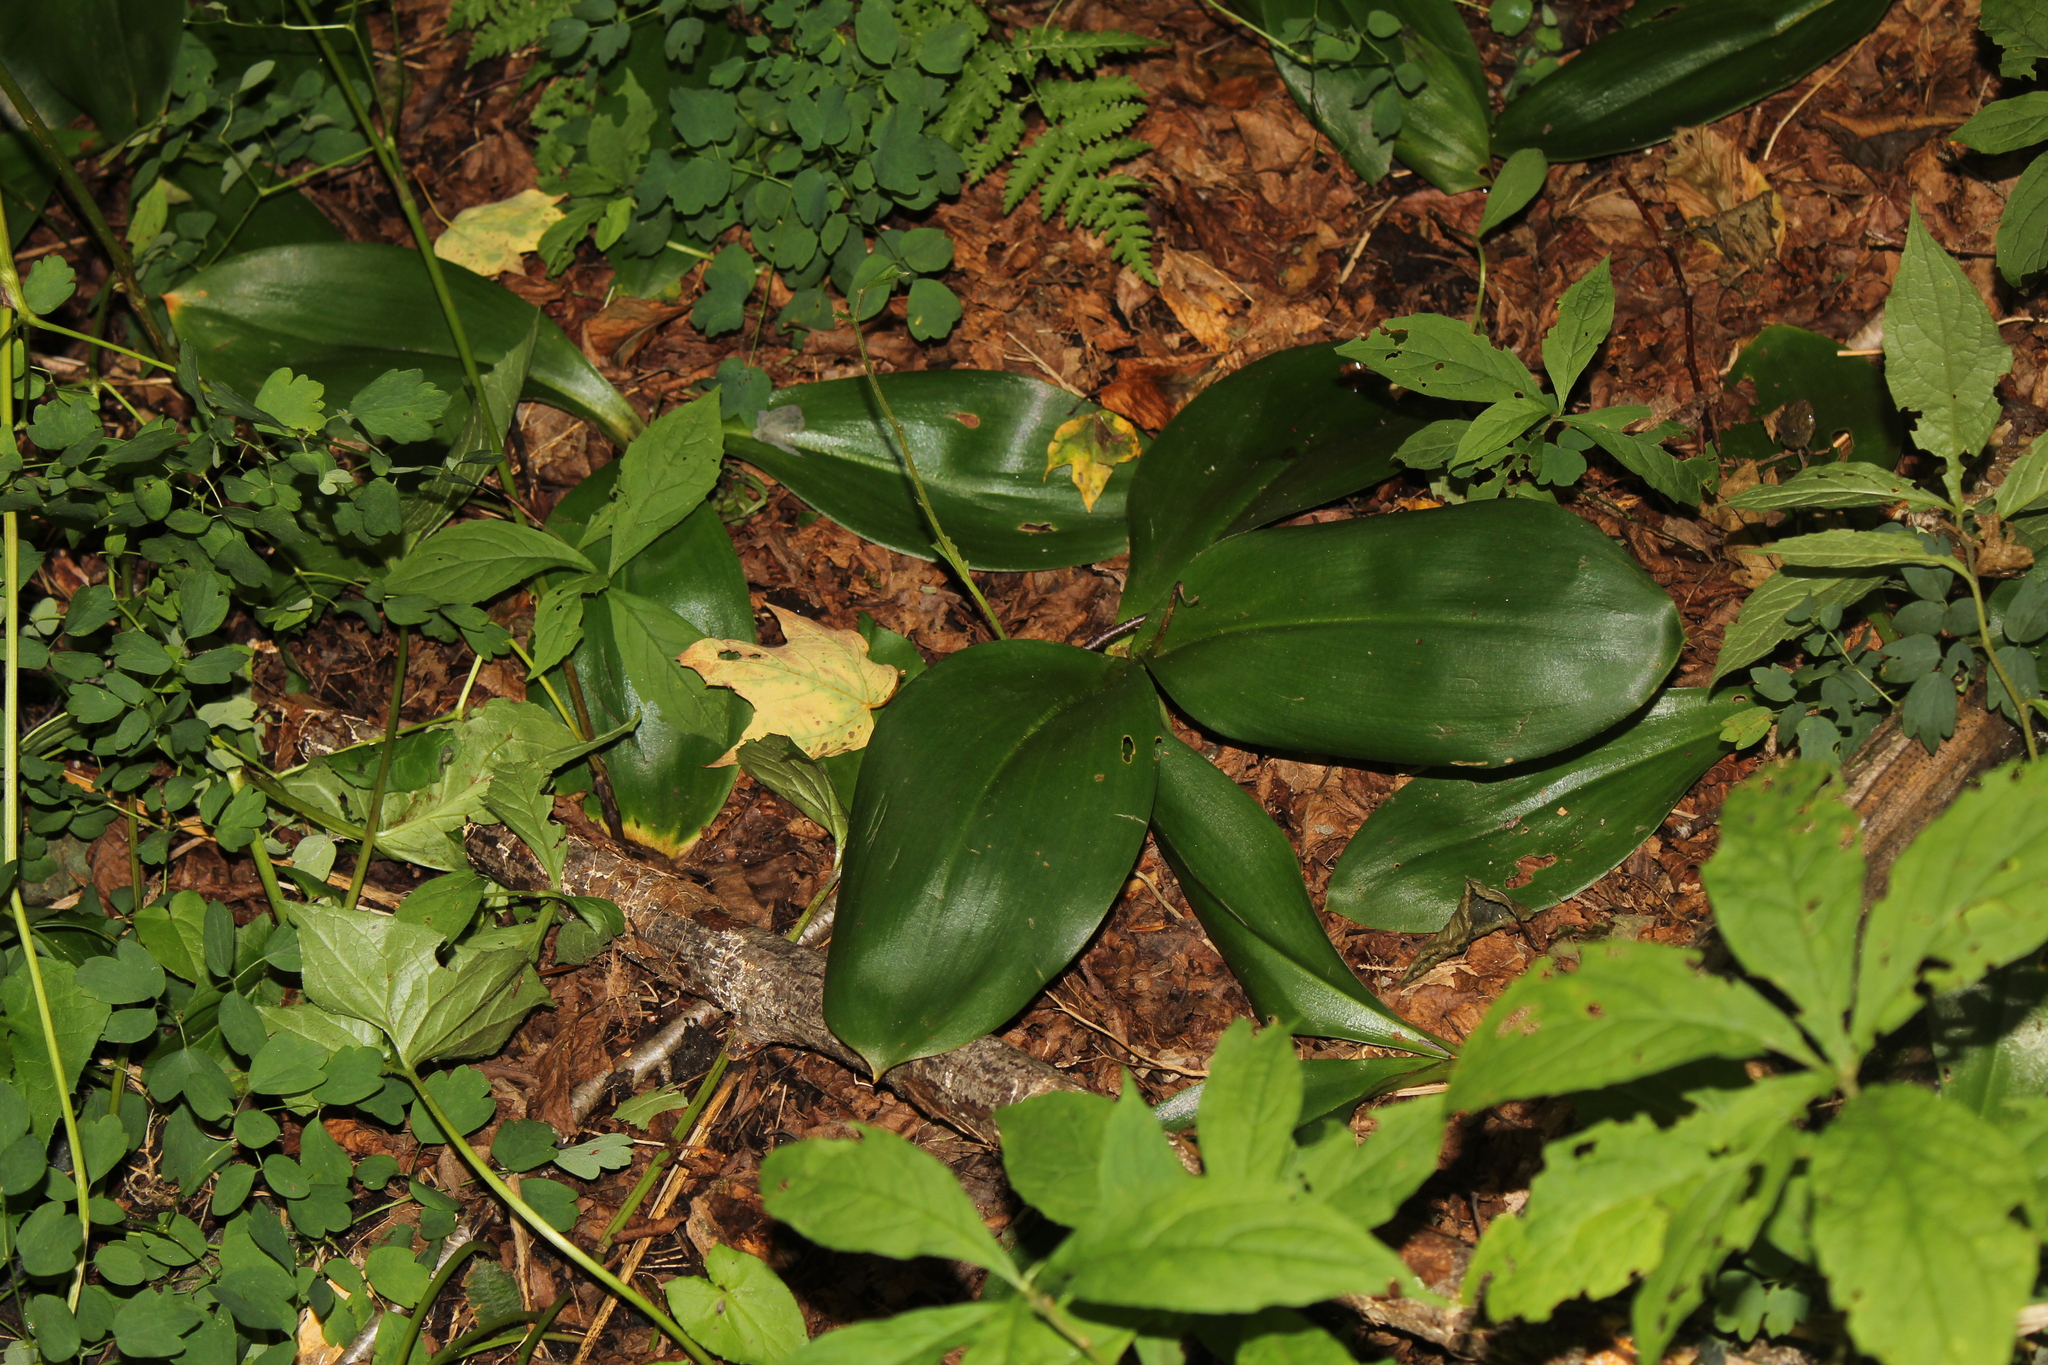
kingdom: Plantae
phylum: Tracheophyta
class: Liliopsida
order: Liliales
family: Liliaceae
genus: Clintonia
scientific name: Clintonia borealis
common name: Yellow clintonia
